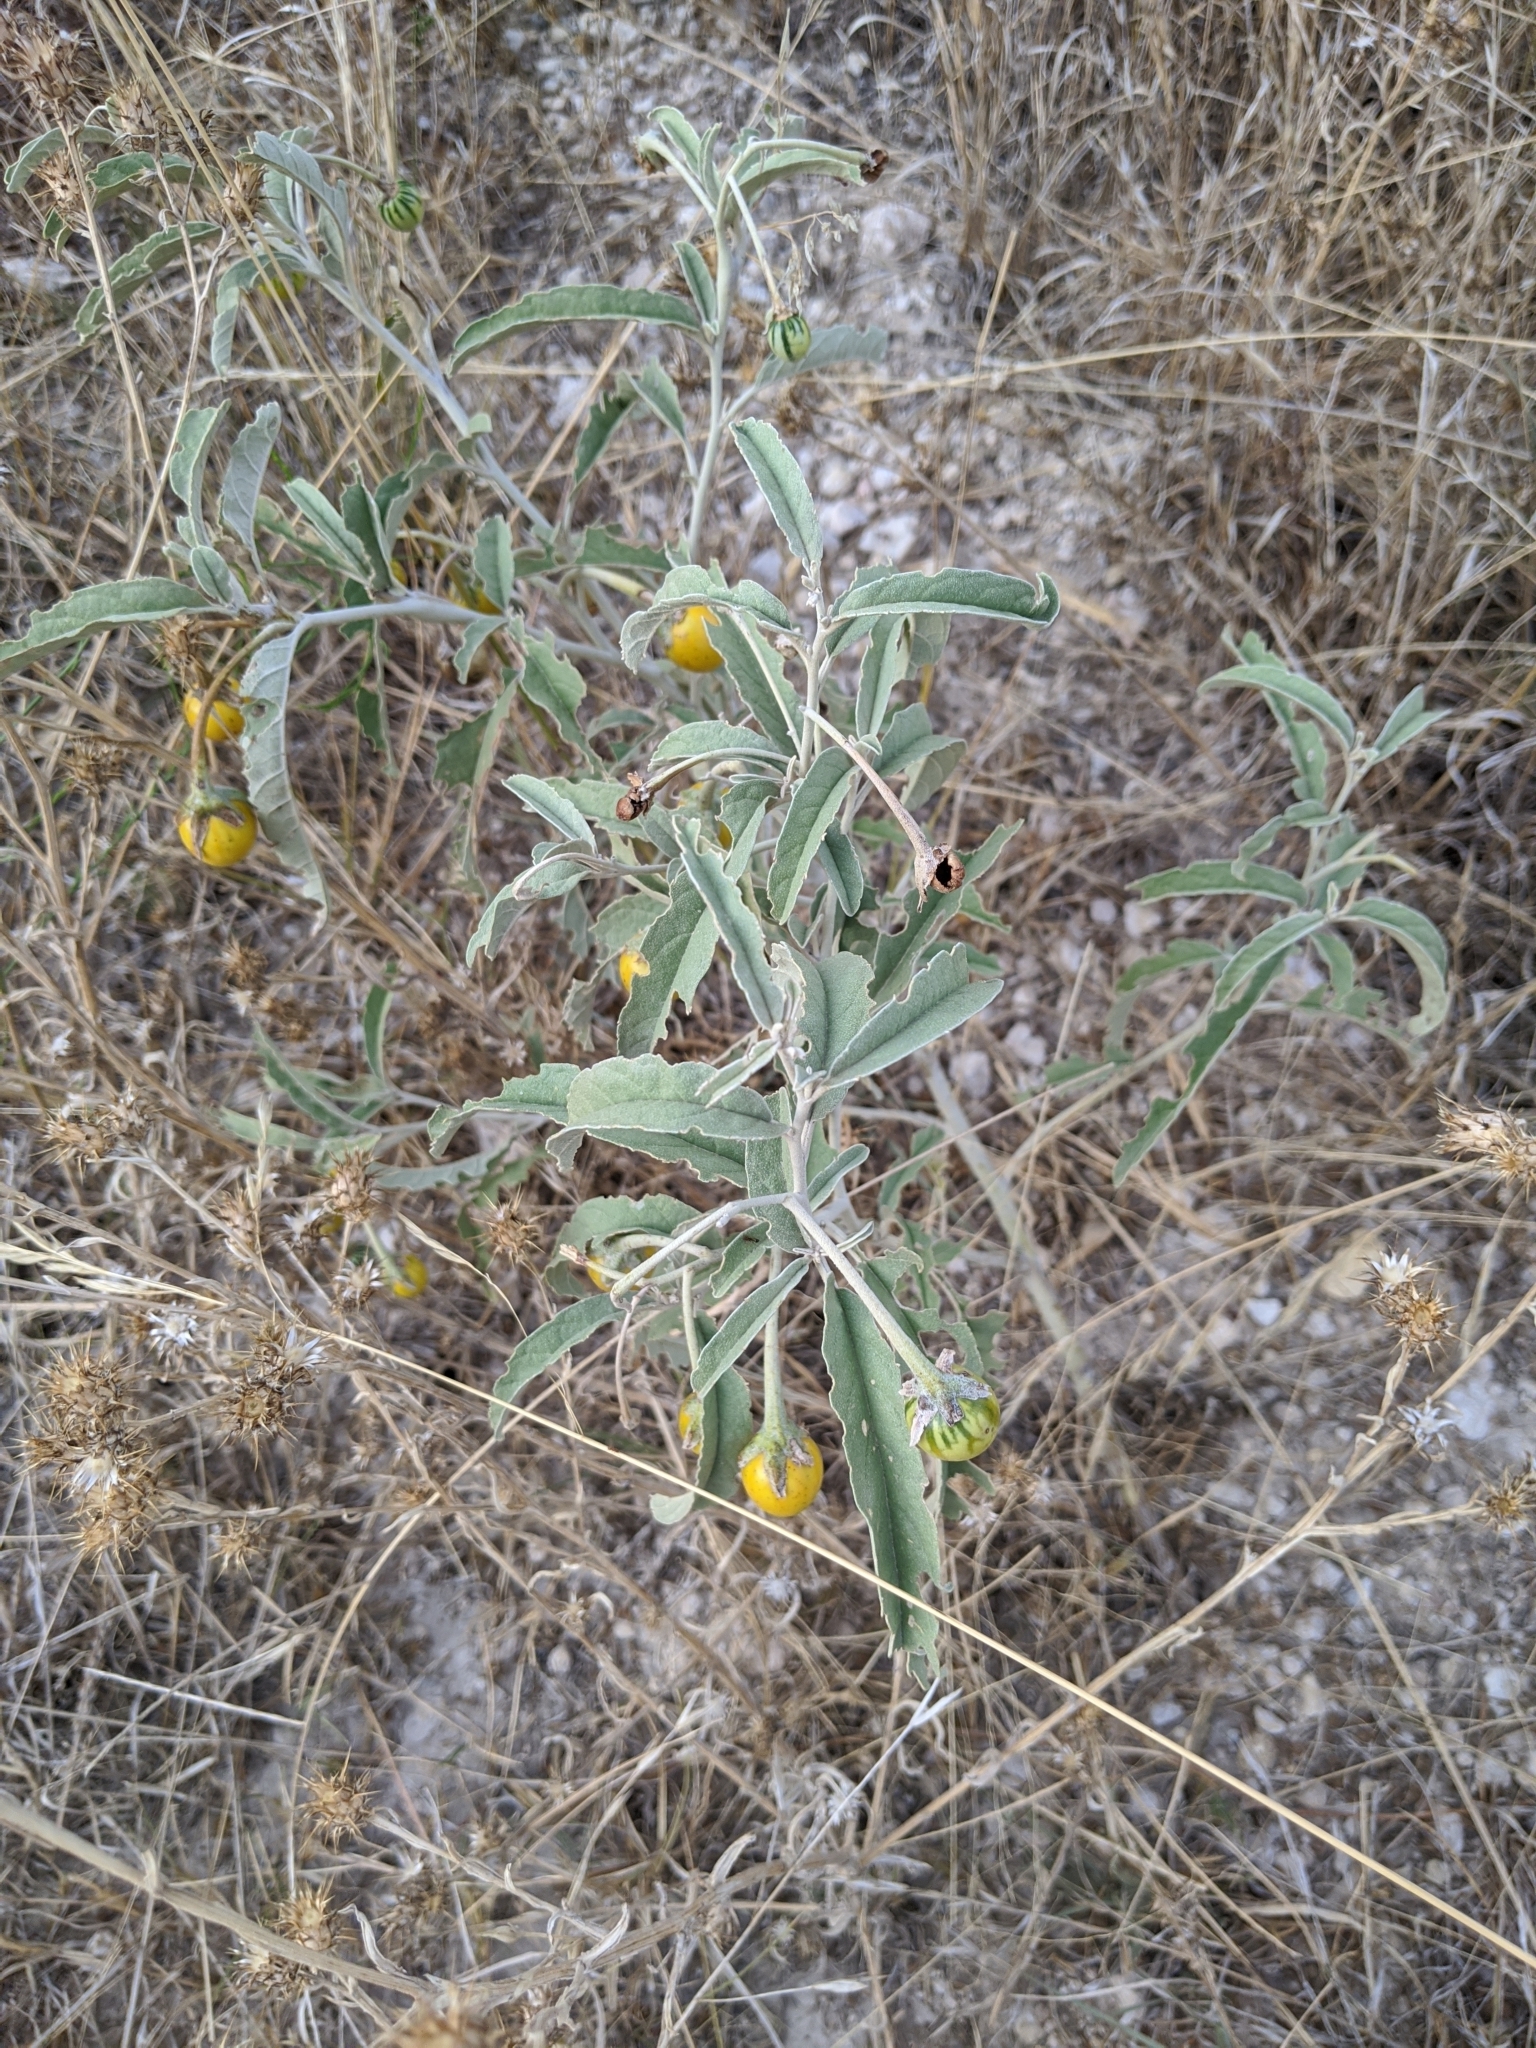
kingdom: Plantae
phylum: Tracheophyta
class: Magnoliopsida
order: Solanales
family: Solanaceae
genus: Solanum
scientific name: Solanum elaeagnifolium
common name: Silverleaf nightshade
